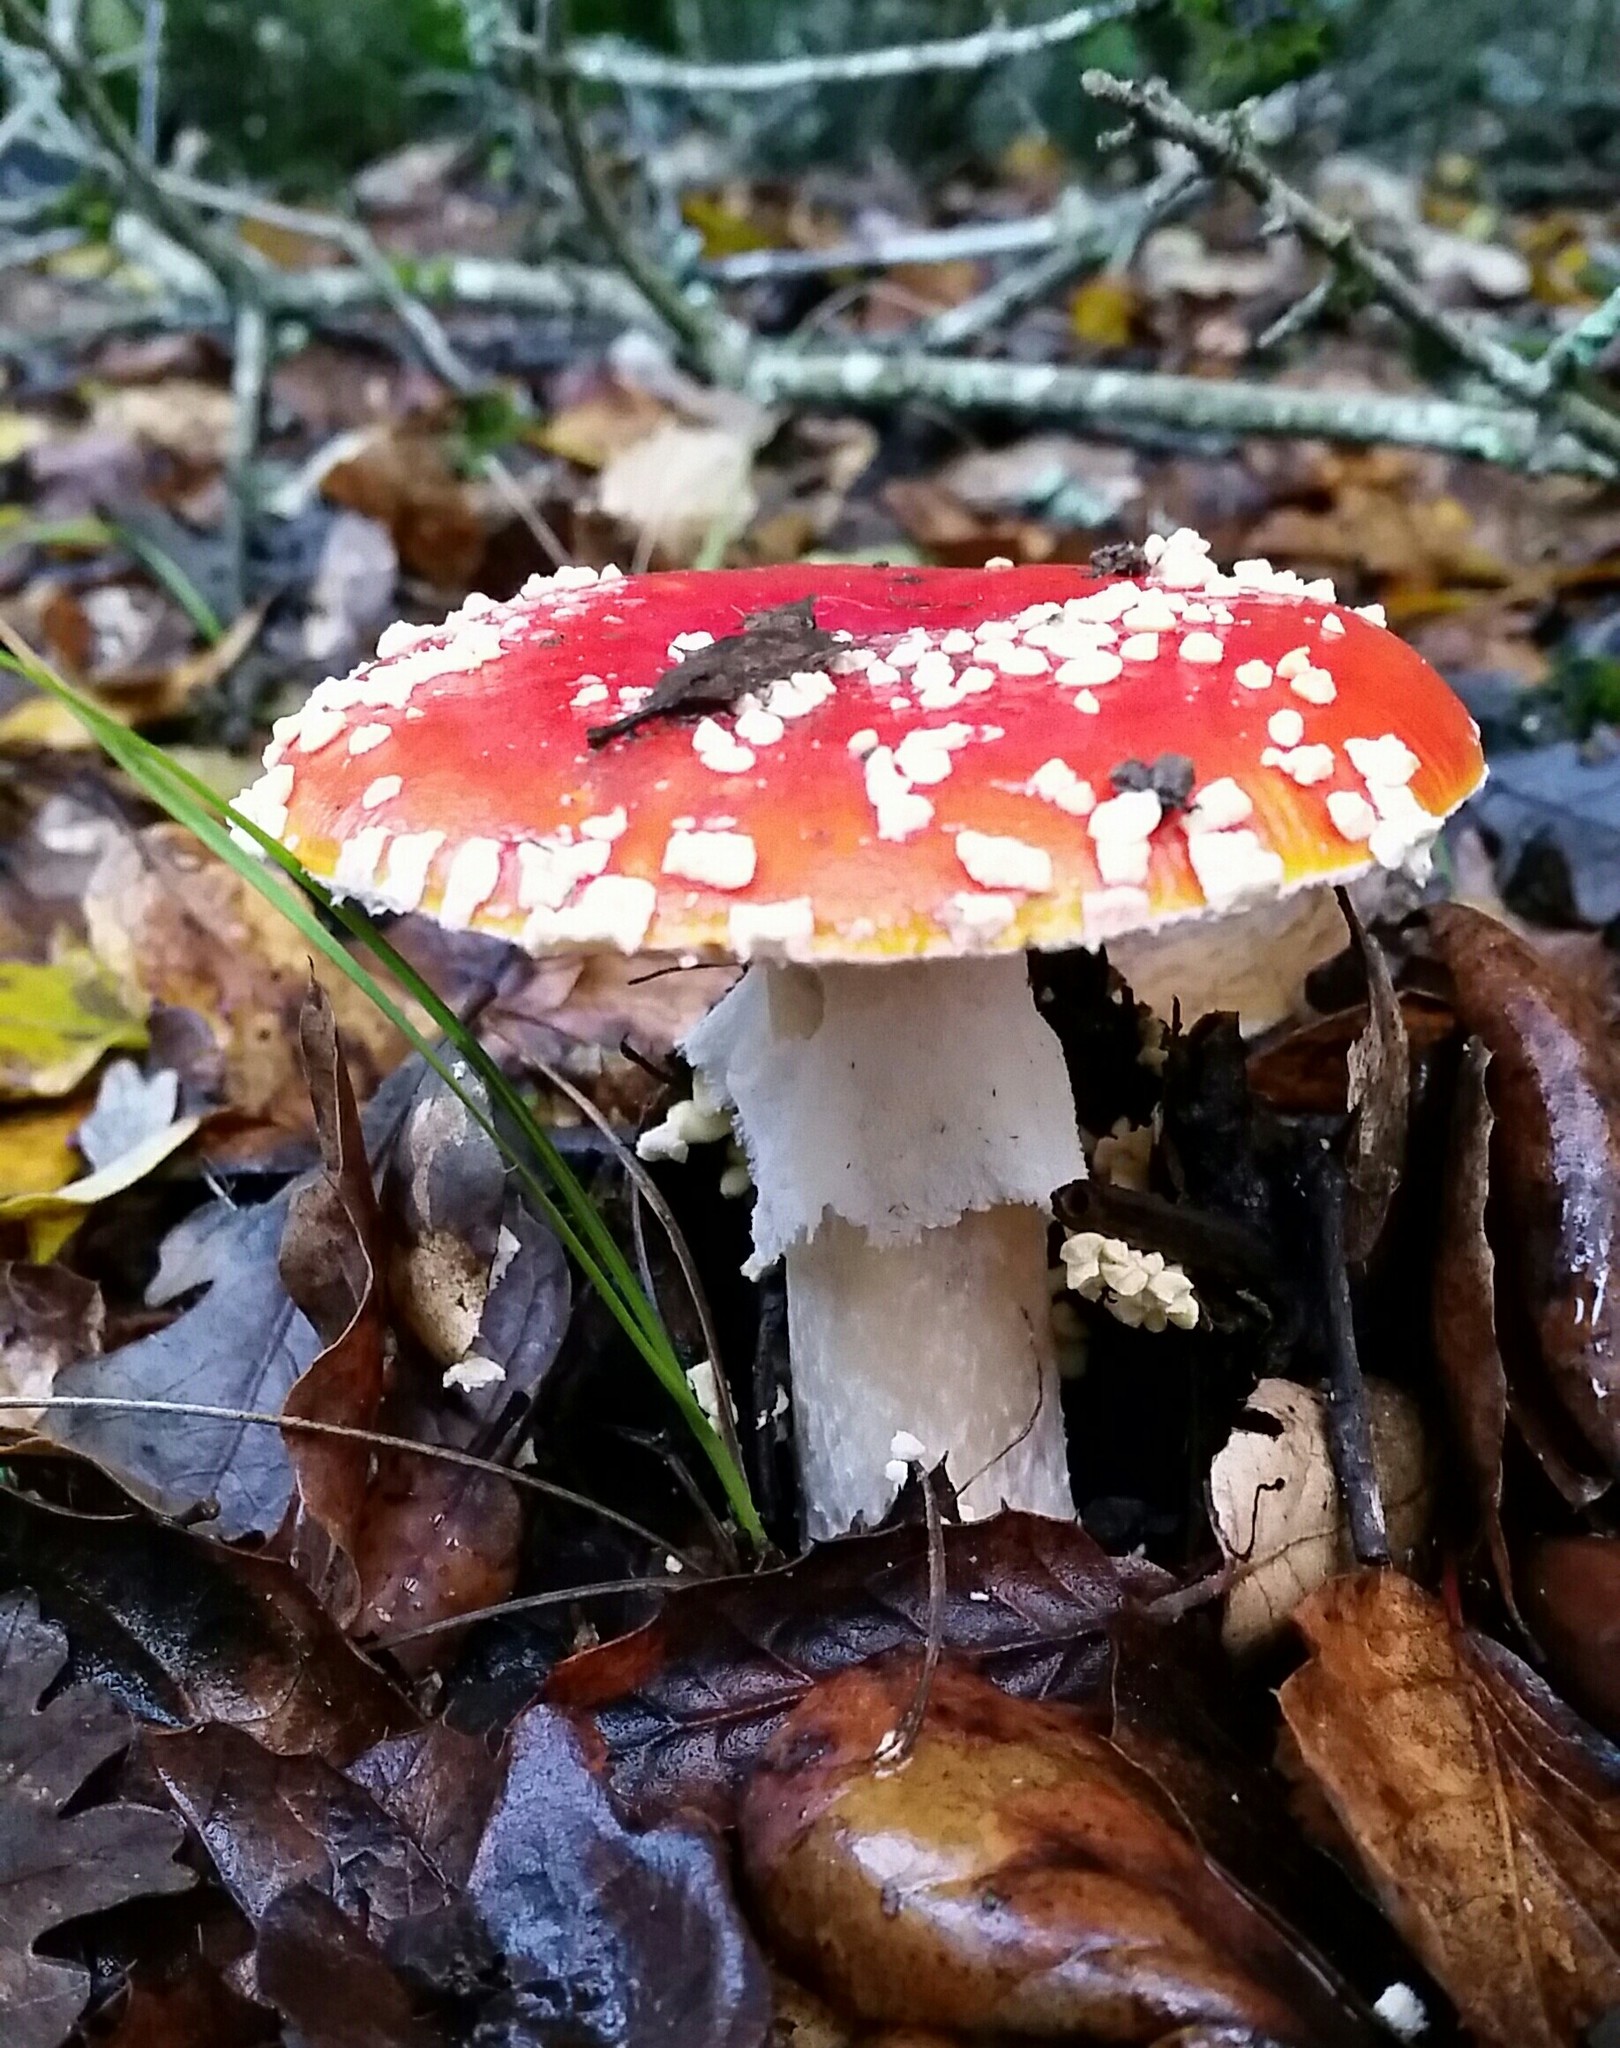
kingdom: Fungi
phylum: Basidiomycota
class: Agaricomycetes
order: Agaricales
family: Amanitaceae
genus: Amanita
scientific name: Amanita muscaria
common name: Fly agaric
